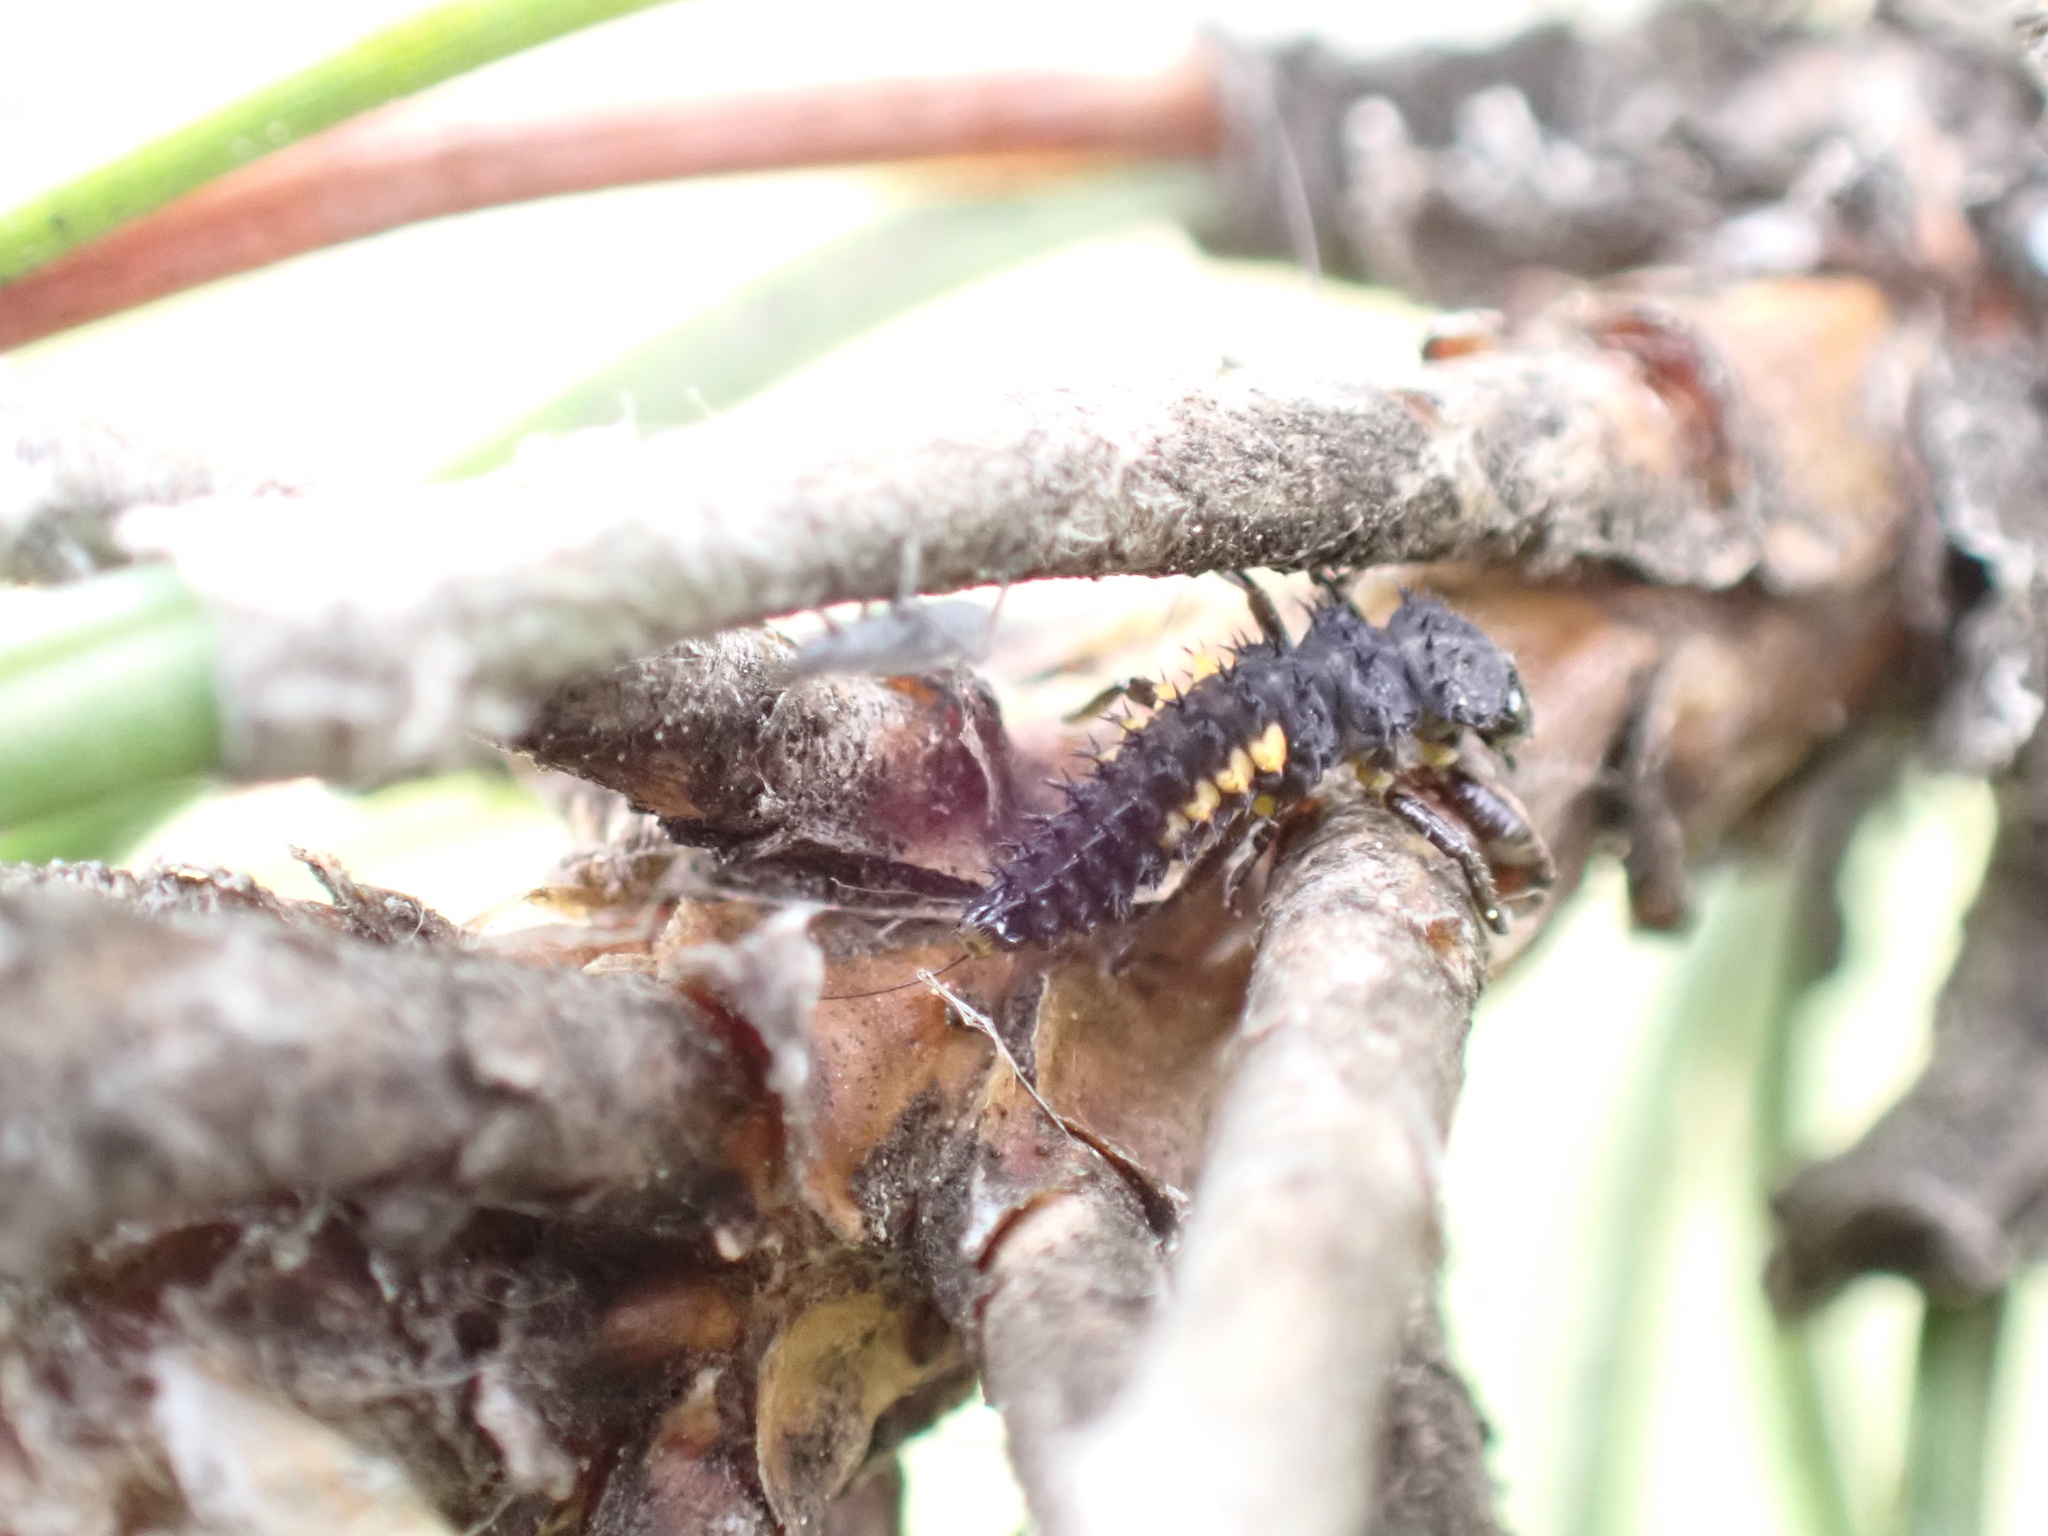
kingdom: Animalia
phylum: Arthropoda
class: Insecta
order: Coleoptera
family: Coccinellidae
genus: Harmonia
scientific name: Harmonia quadripunctata
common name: Cream-streaked ladybird
